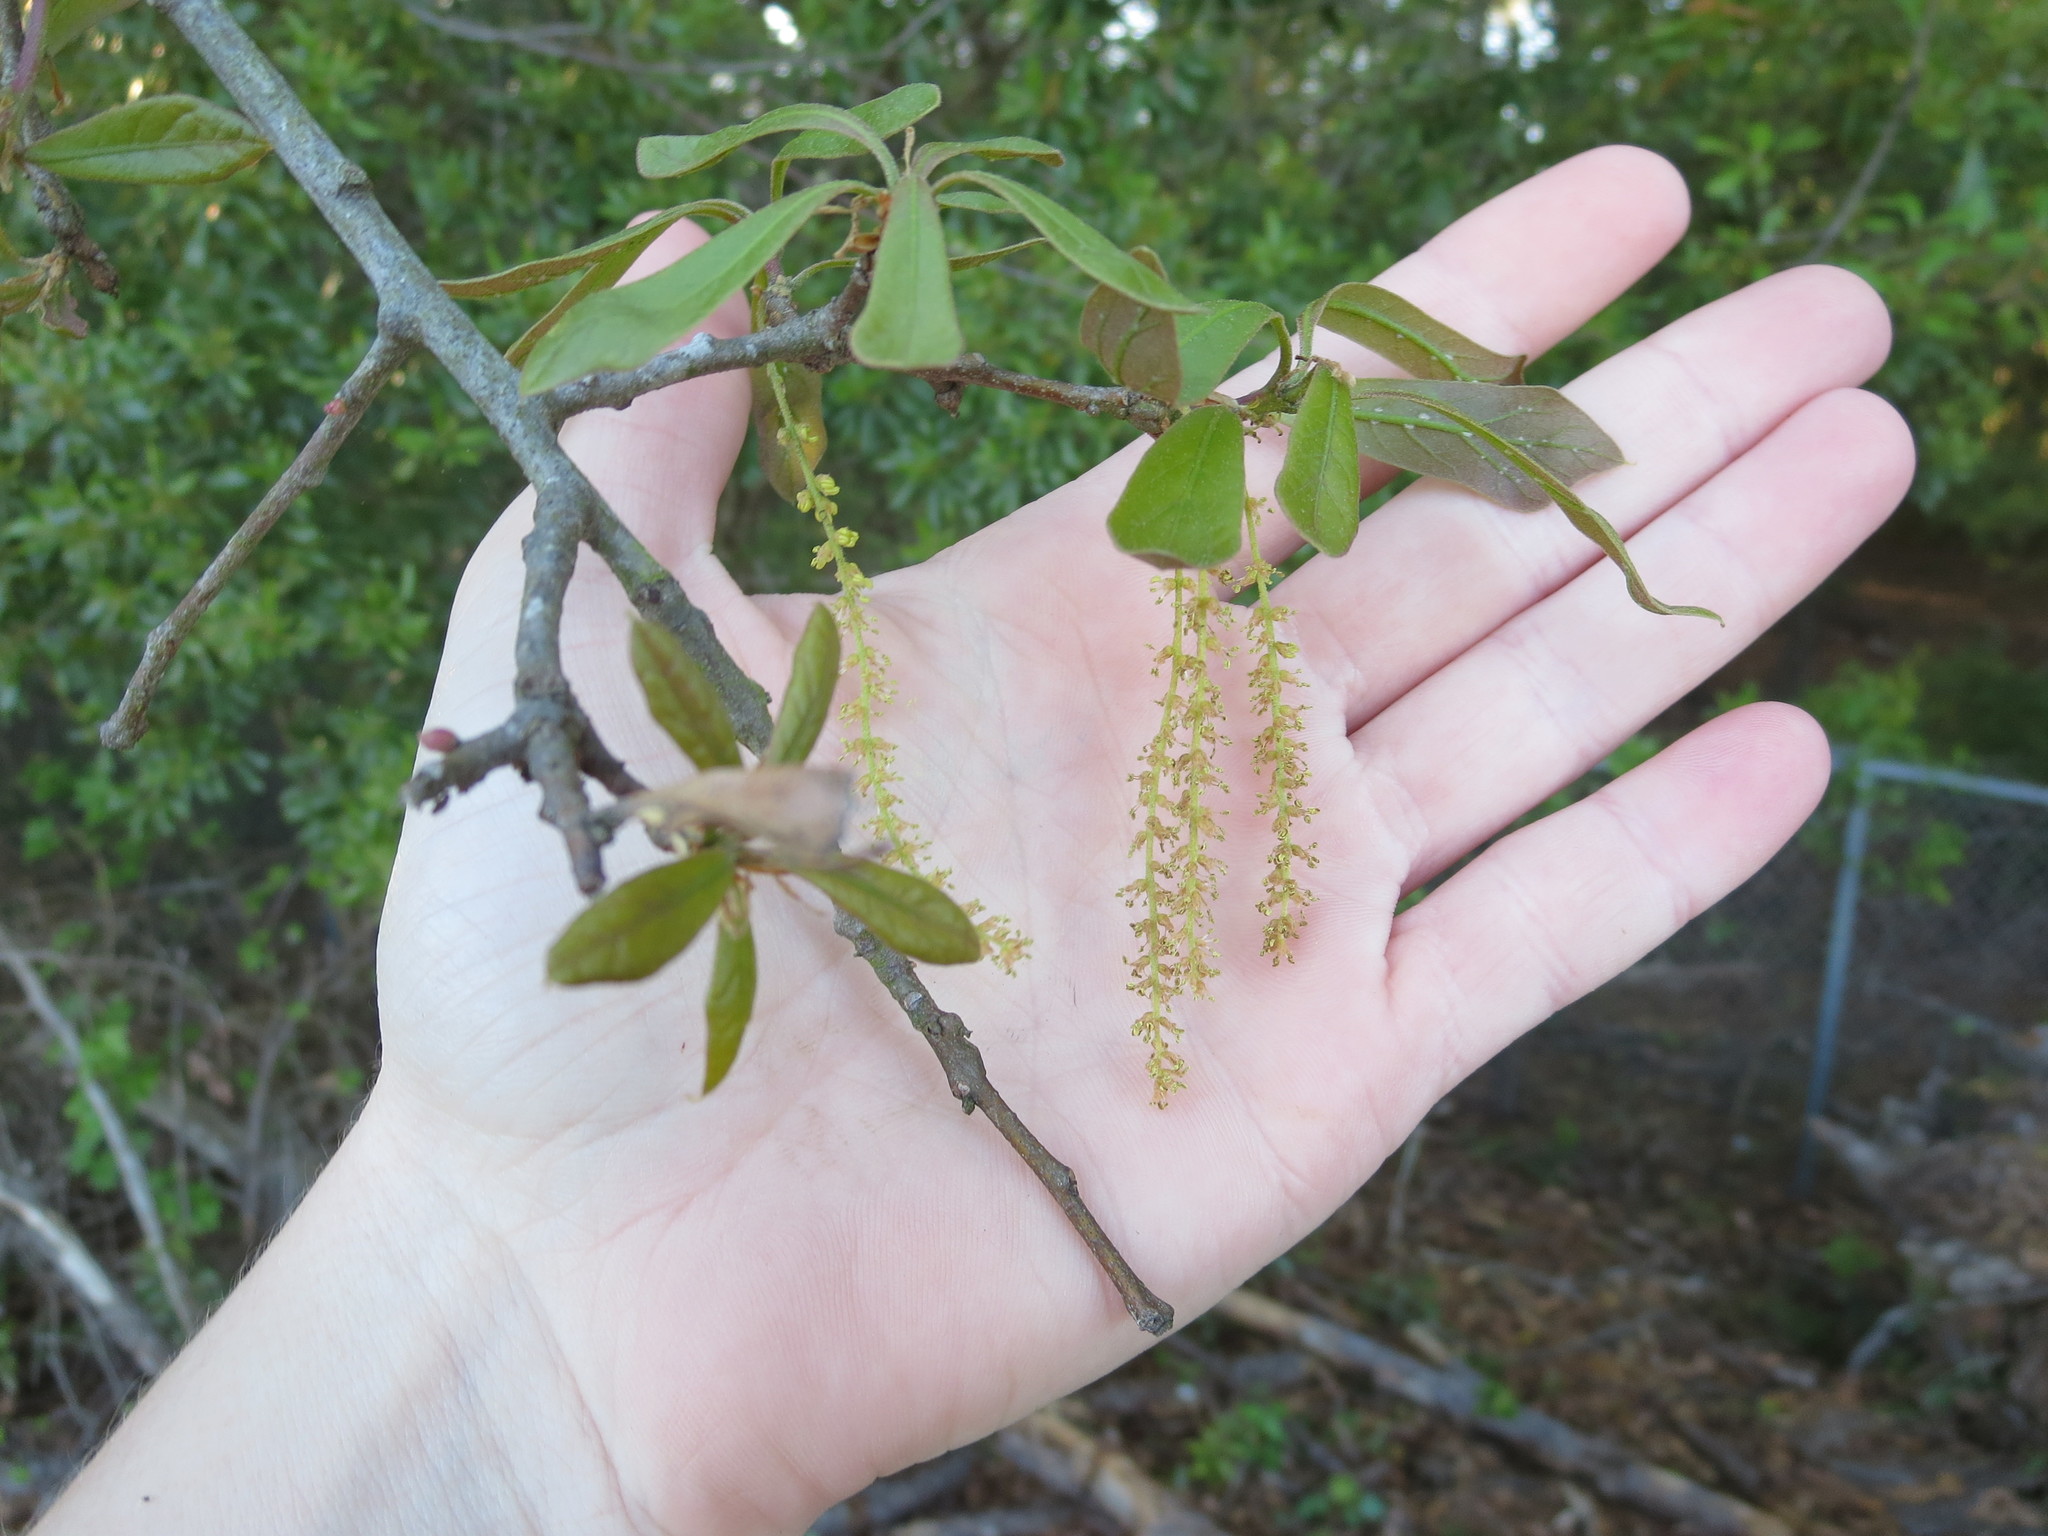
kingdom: Plantae
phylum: Tracheophyta
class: Magnoliopsida
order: Fagales
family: Fagaceae
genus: Quercus
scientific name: Quercus nigra
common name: Water oak
